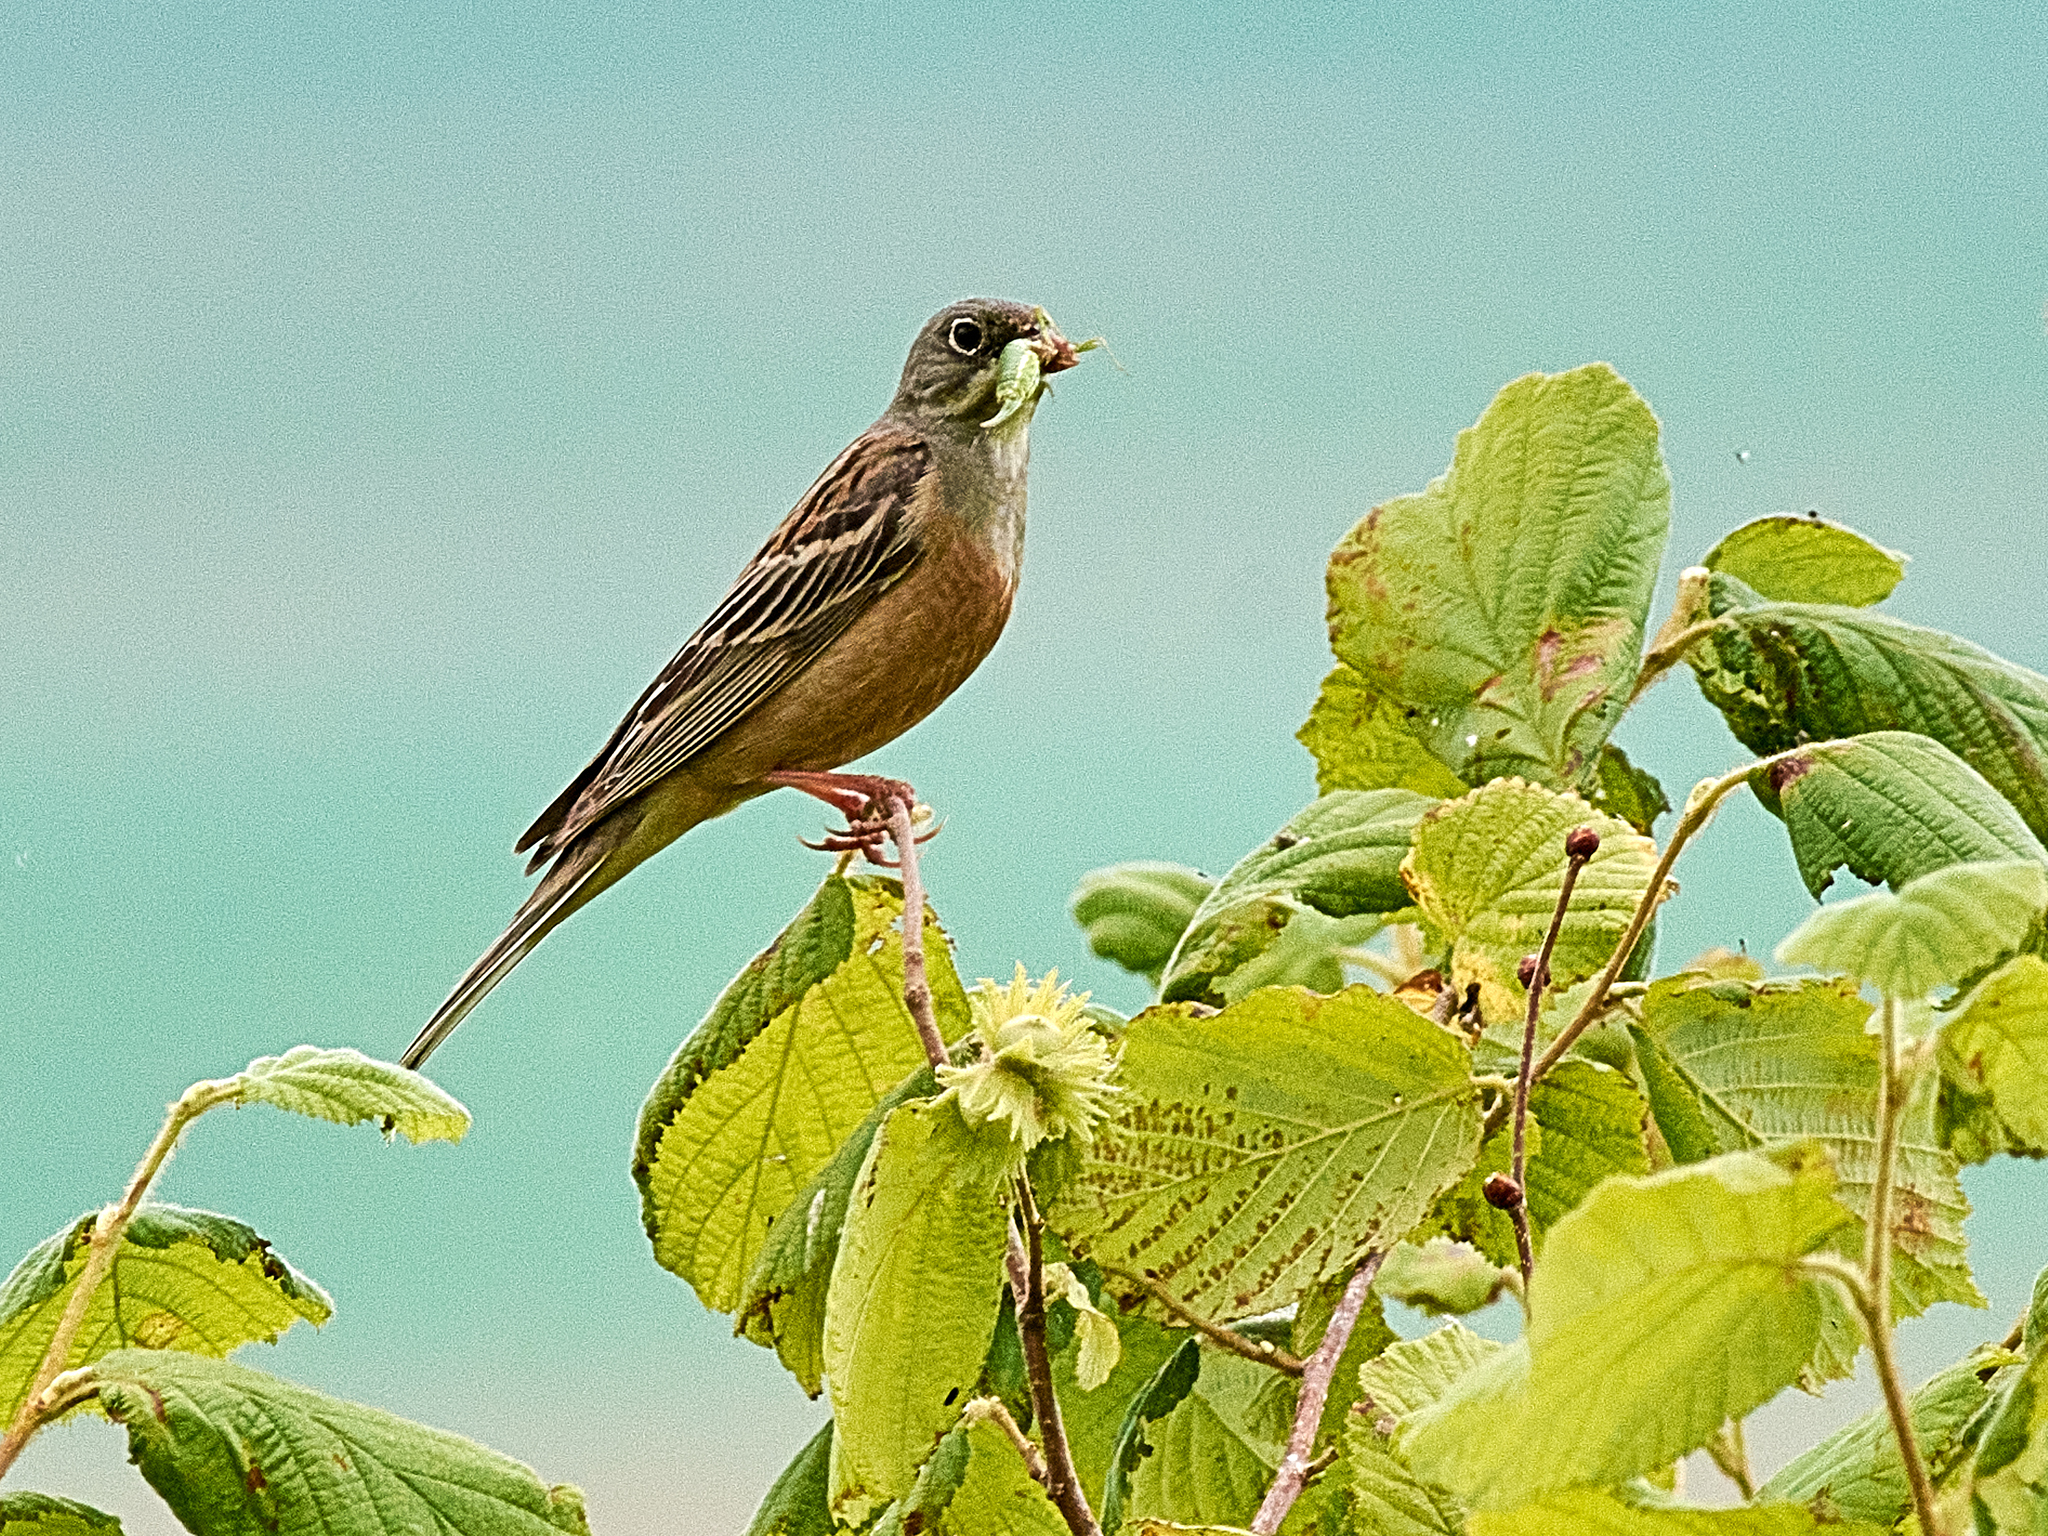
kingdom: Animalia
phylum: Chordata
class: Aves
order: Passeriformes
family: Emberizidae
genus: Emberiza
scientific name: Emberiza hortulana
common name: Ortolan bunting
